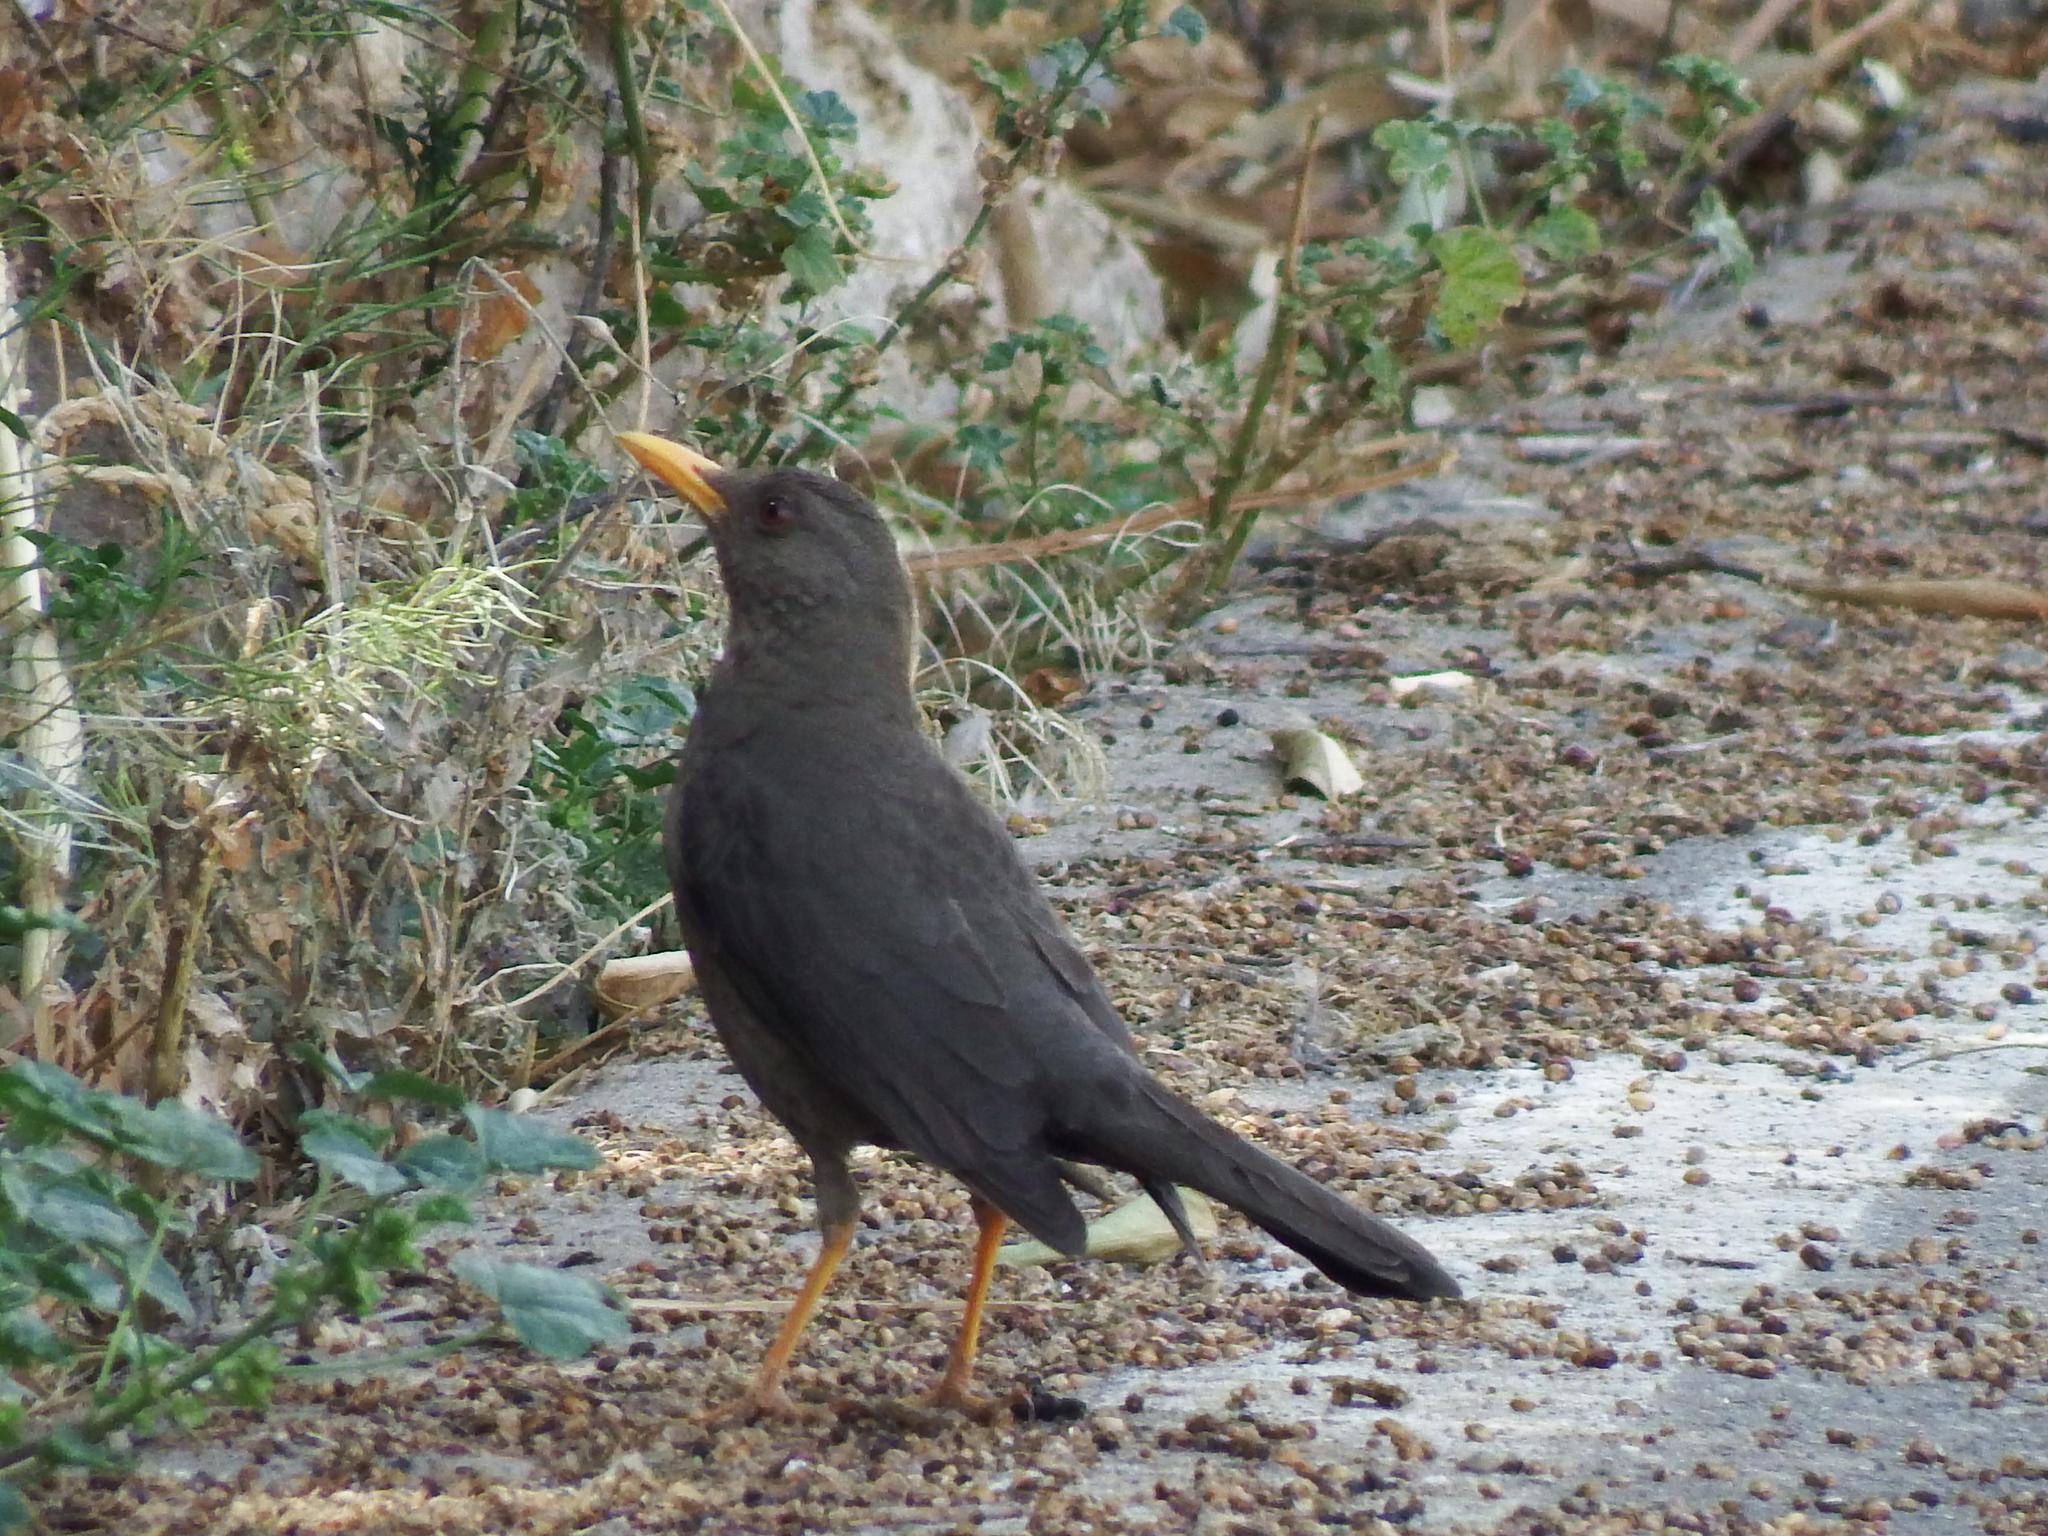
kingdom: Animalia
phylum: Chordata
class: Aves
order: Passeriformes
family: Turdidae
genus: Turdus
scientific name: Turdus chiguanco
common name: Chiguanco thrush
